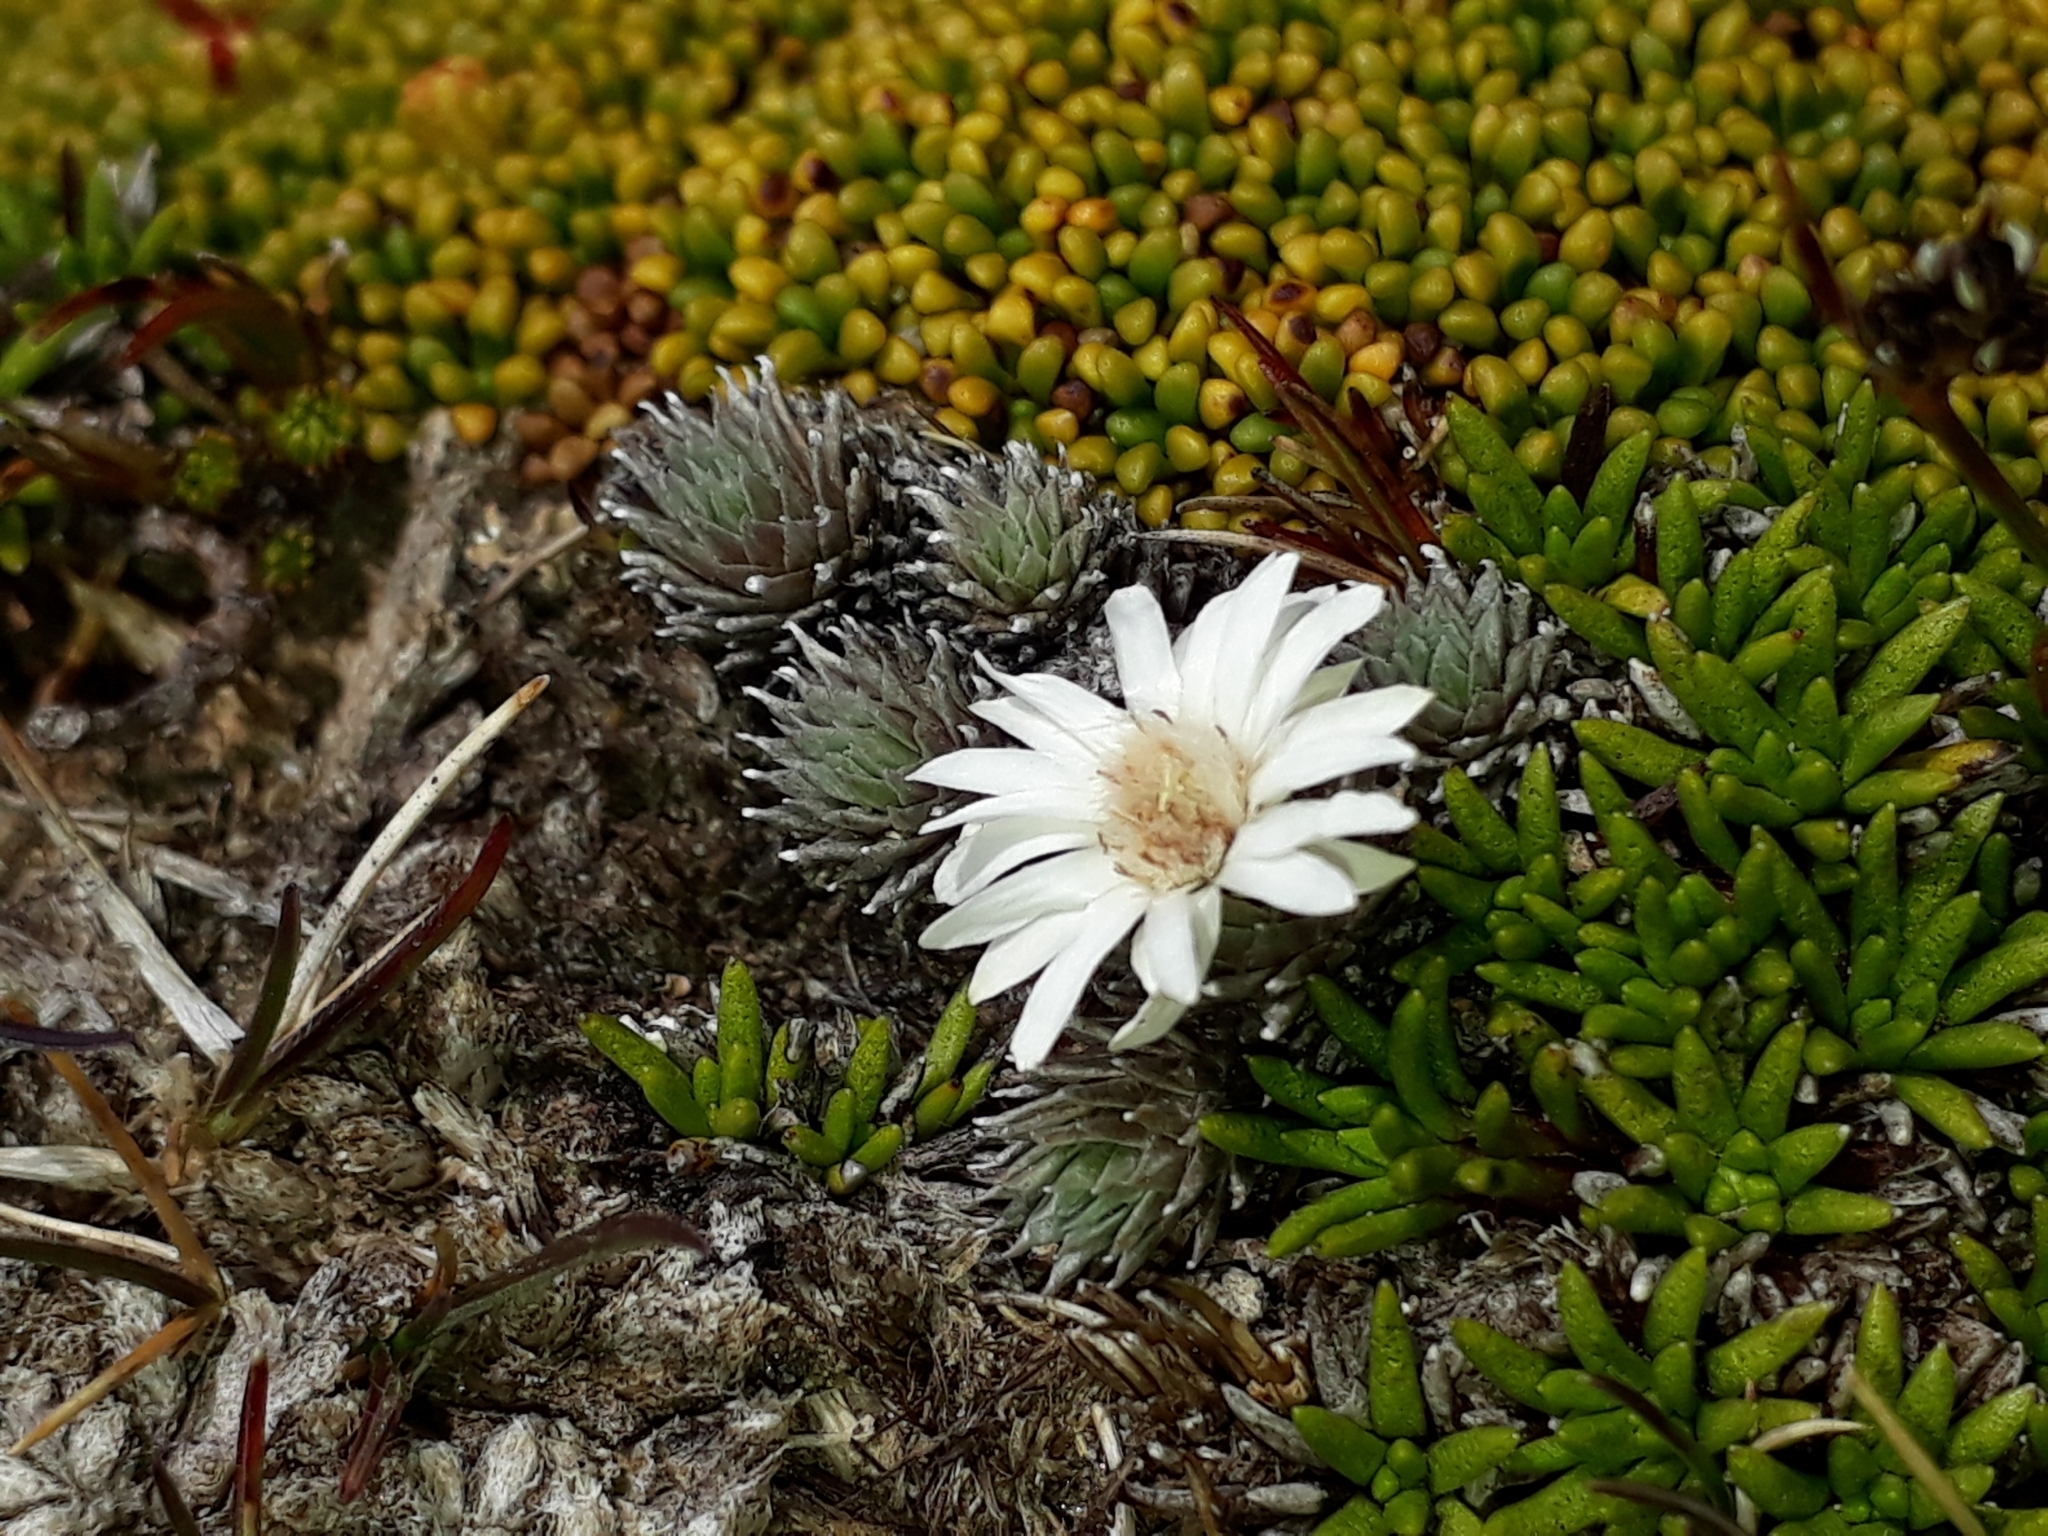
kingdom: Plantae
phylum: Tracheophyta
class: Magnoliopsida
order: Asterales
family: Asteraceae
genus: Raoulia
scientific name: Raoulia grandiflora
